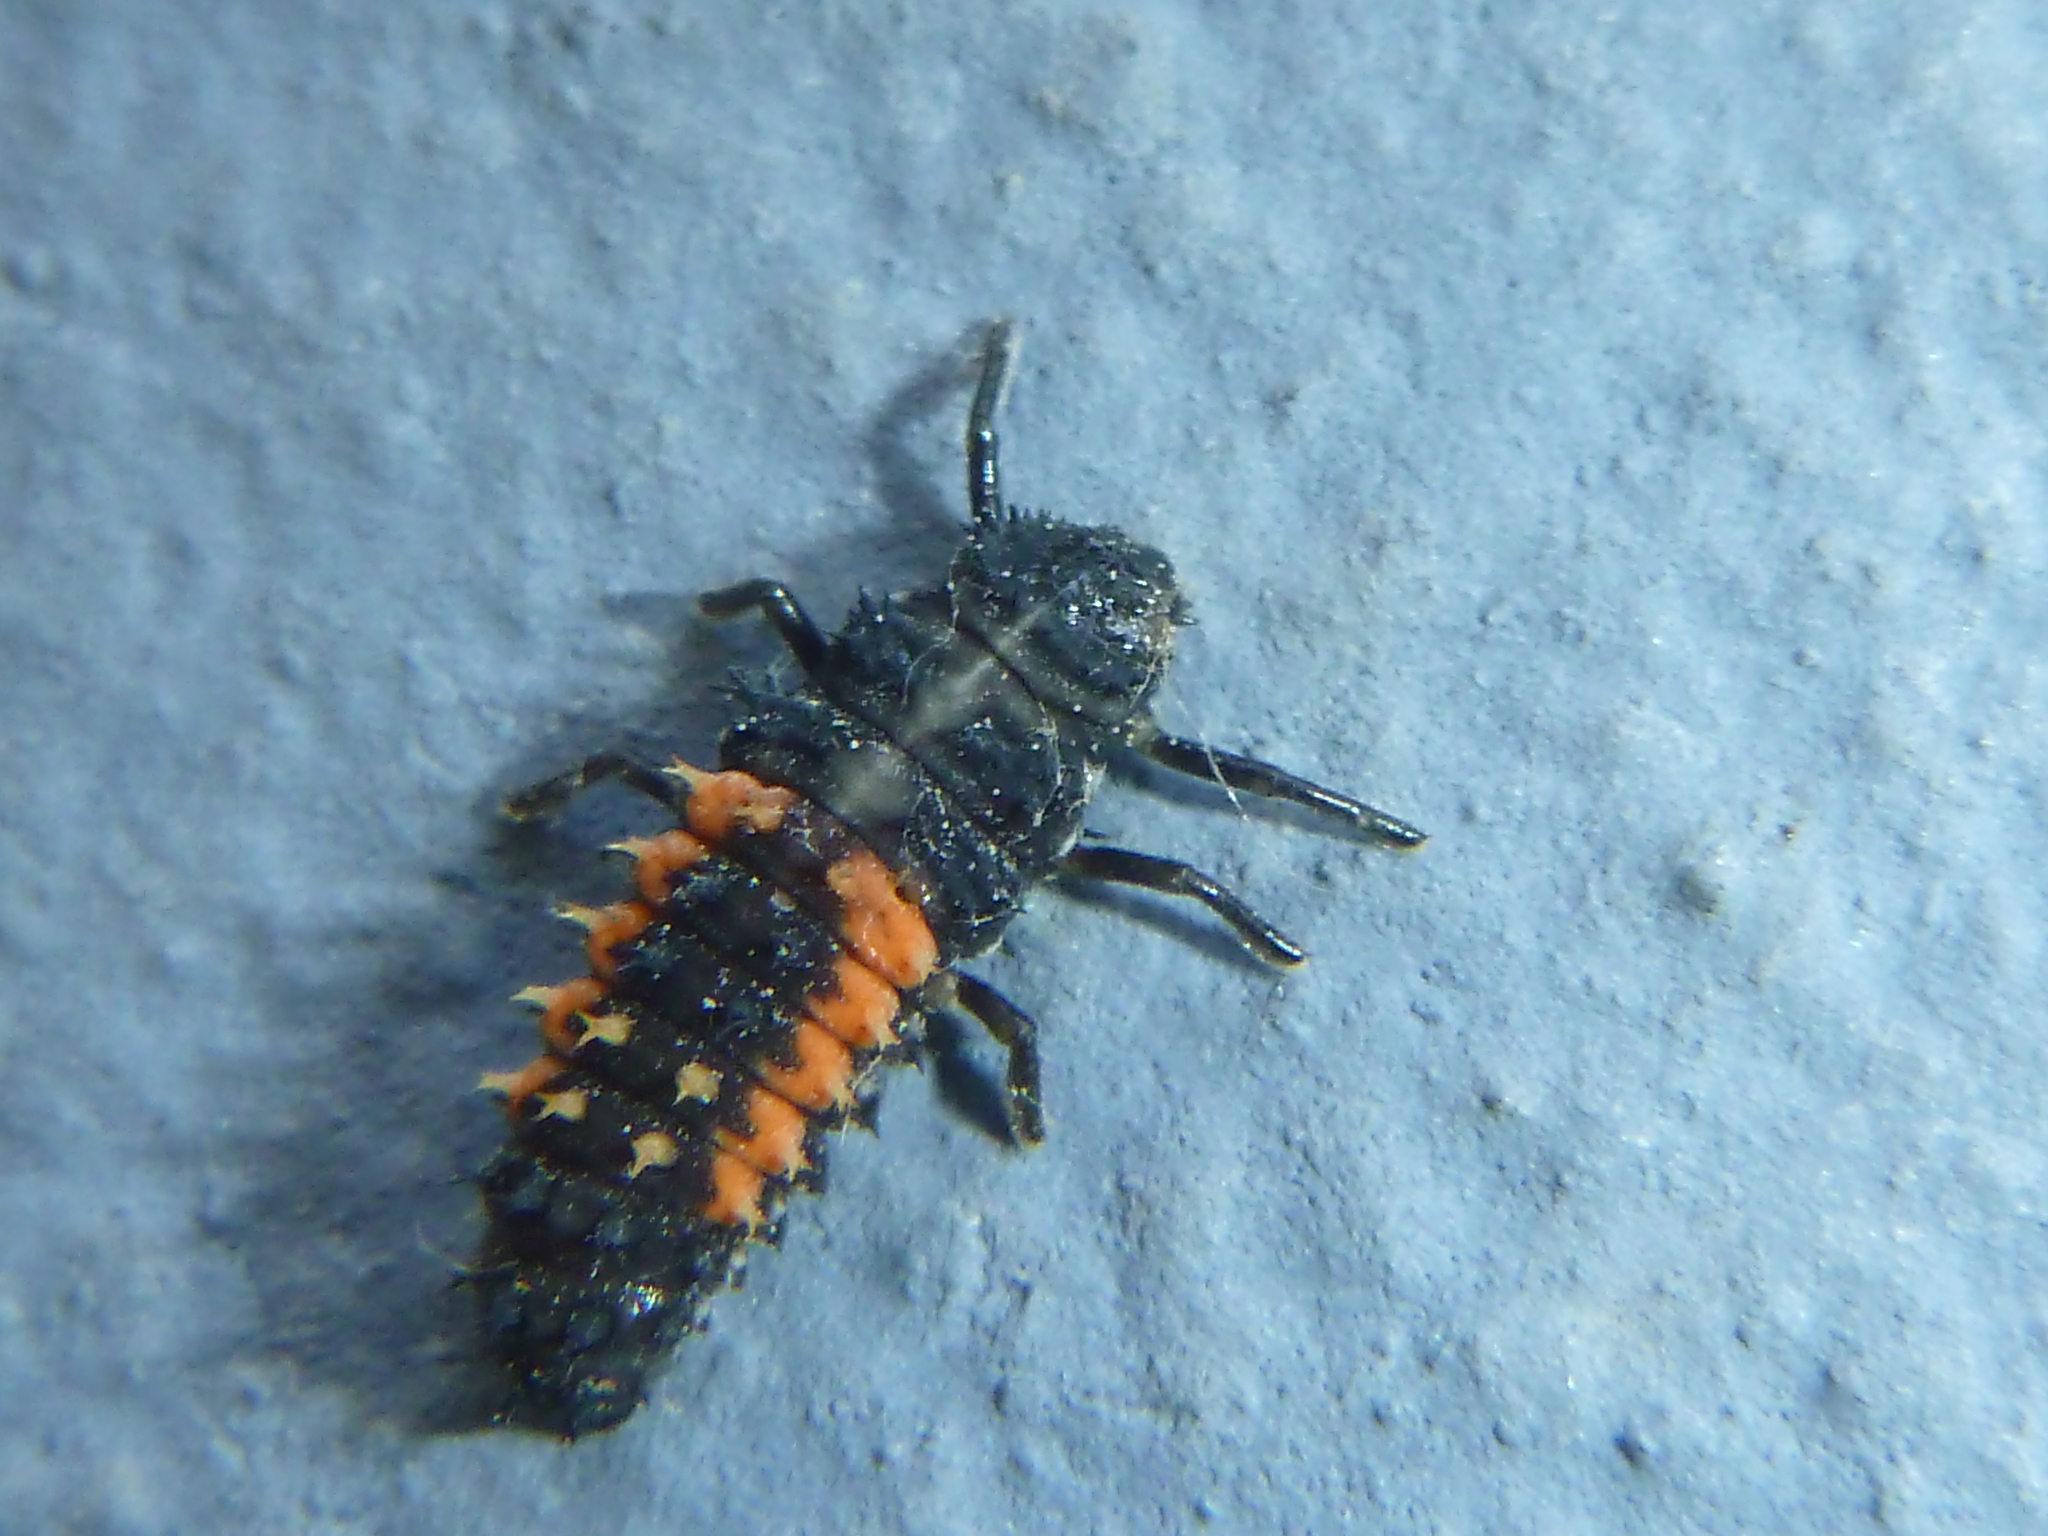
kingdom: Animalia
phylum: Arthropoda
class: Insecta
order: Coleoptera
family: Coccinellidae
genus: Harmonia
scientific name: Harmonia axyridis
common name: Harlequin ladybird
